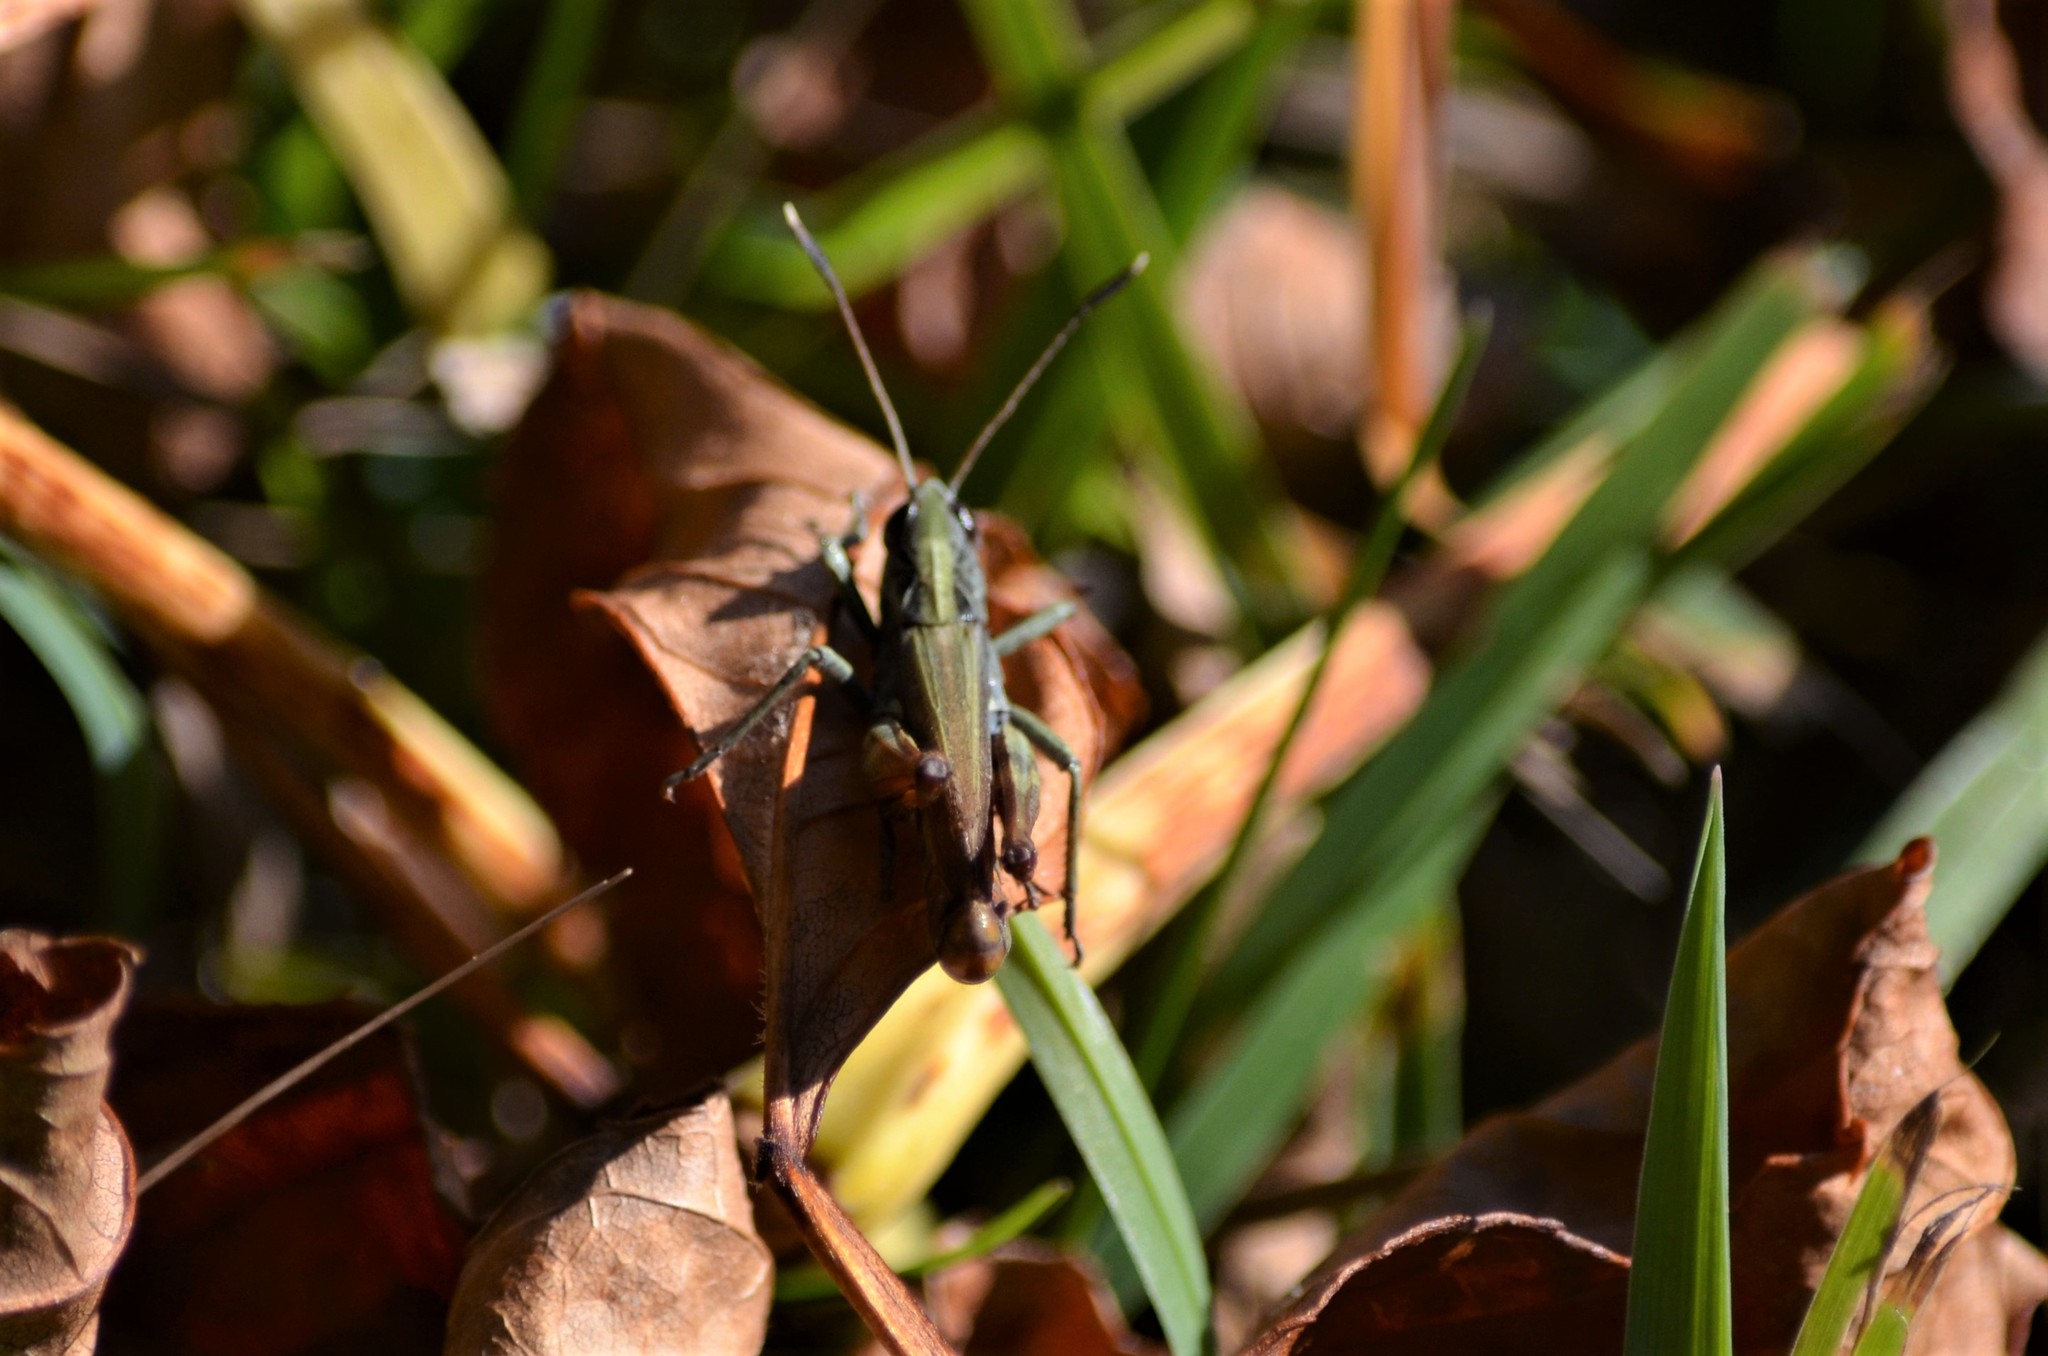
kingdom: Animalia
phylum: Arthropoda
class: Insecta
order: Orthoptera
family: Acrididae
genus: Gomphocerippus
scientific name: Gomphocerippus rufus
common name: Rufous grasshopper
